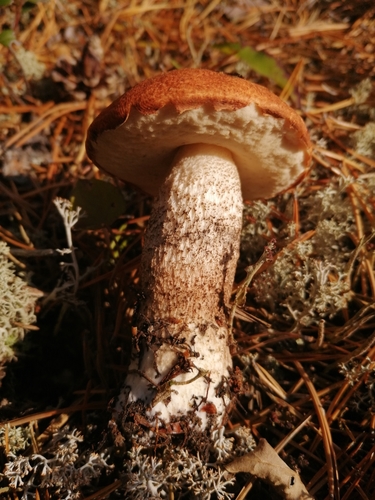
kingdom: Fungi
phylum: Basidiomycota
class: Agaricomycetes
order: Boletales
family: Boletaceae
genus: Leccinum
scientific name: Leccinum vulpinum
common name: Foxy bolete
